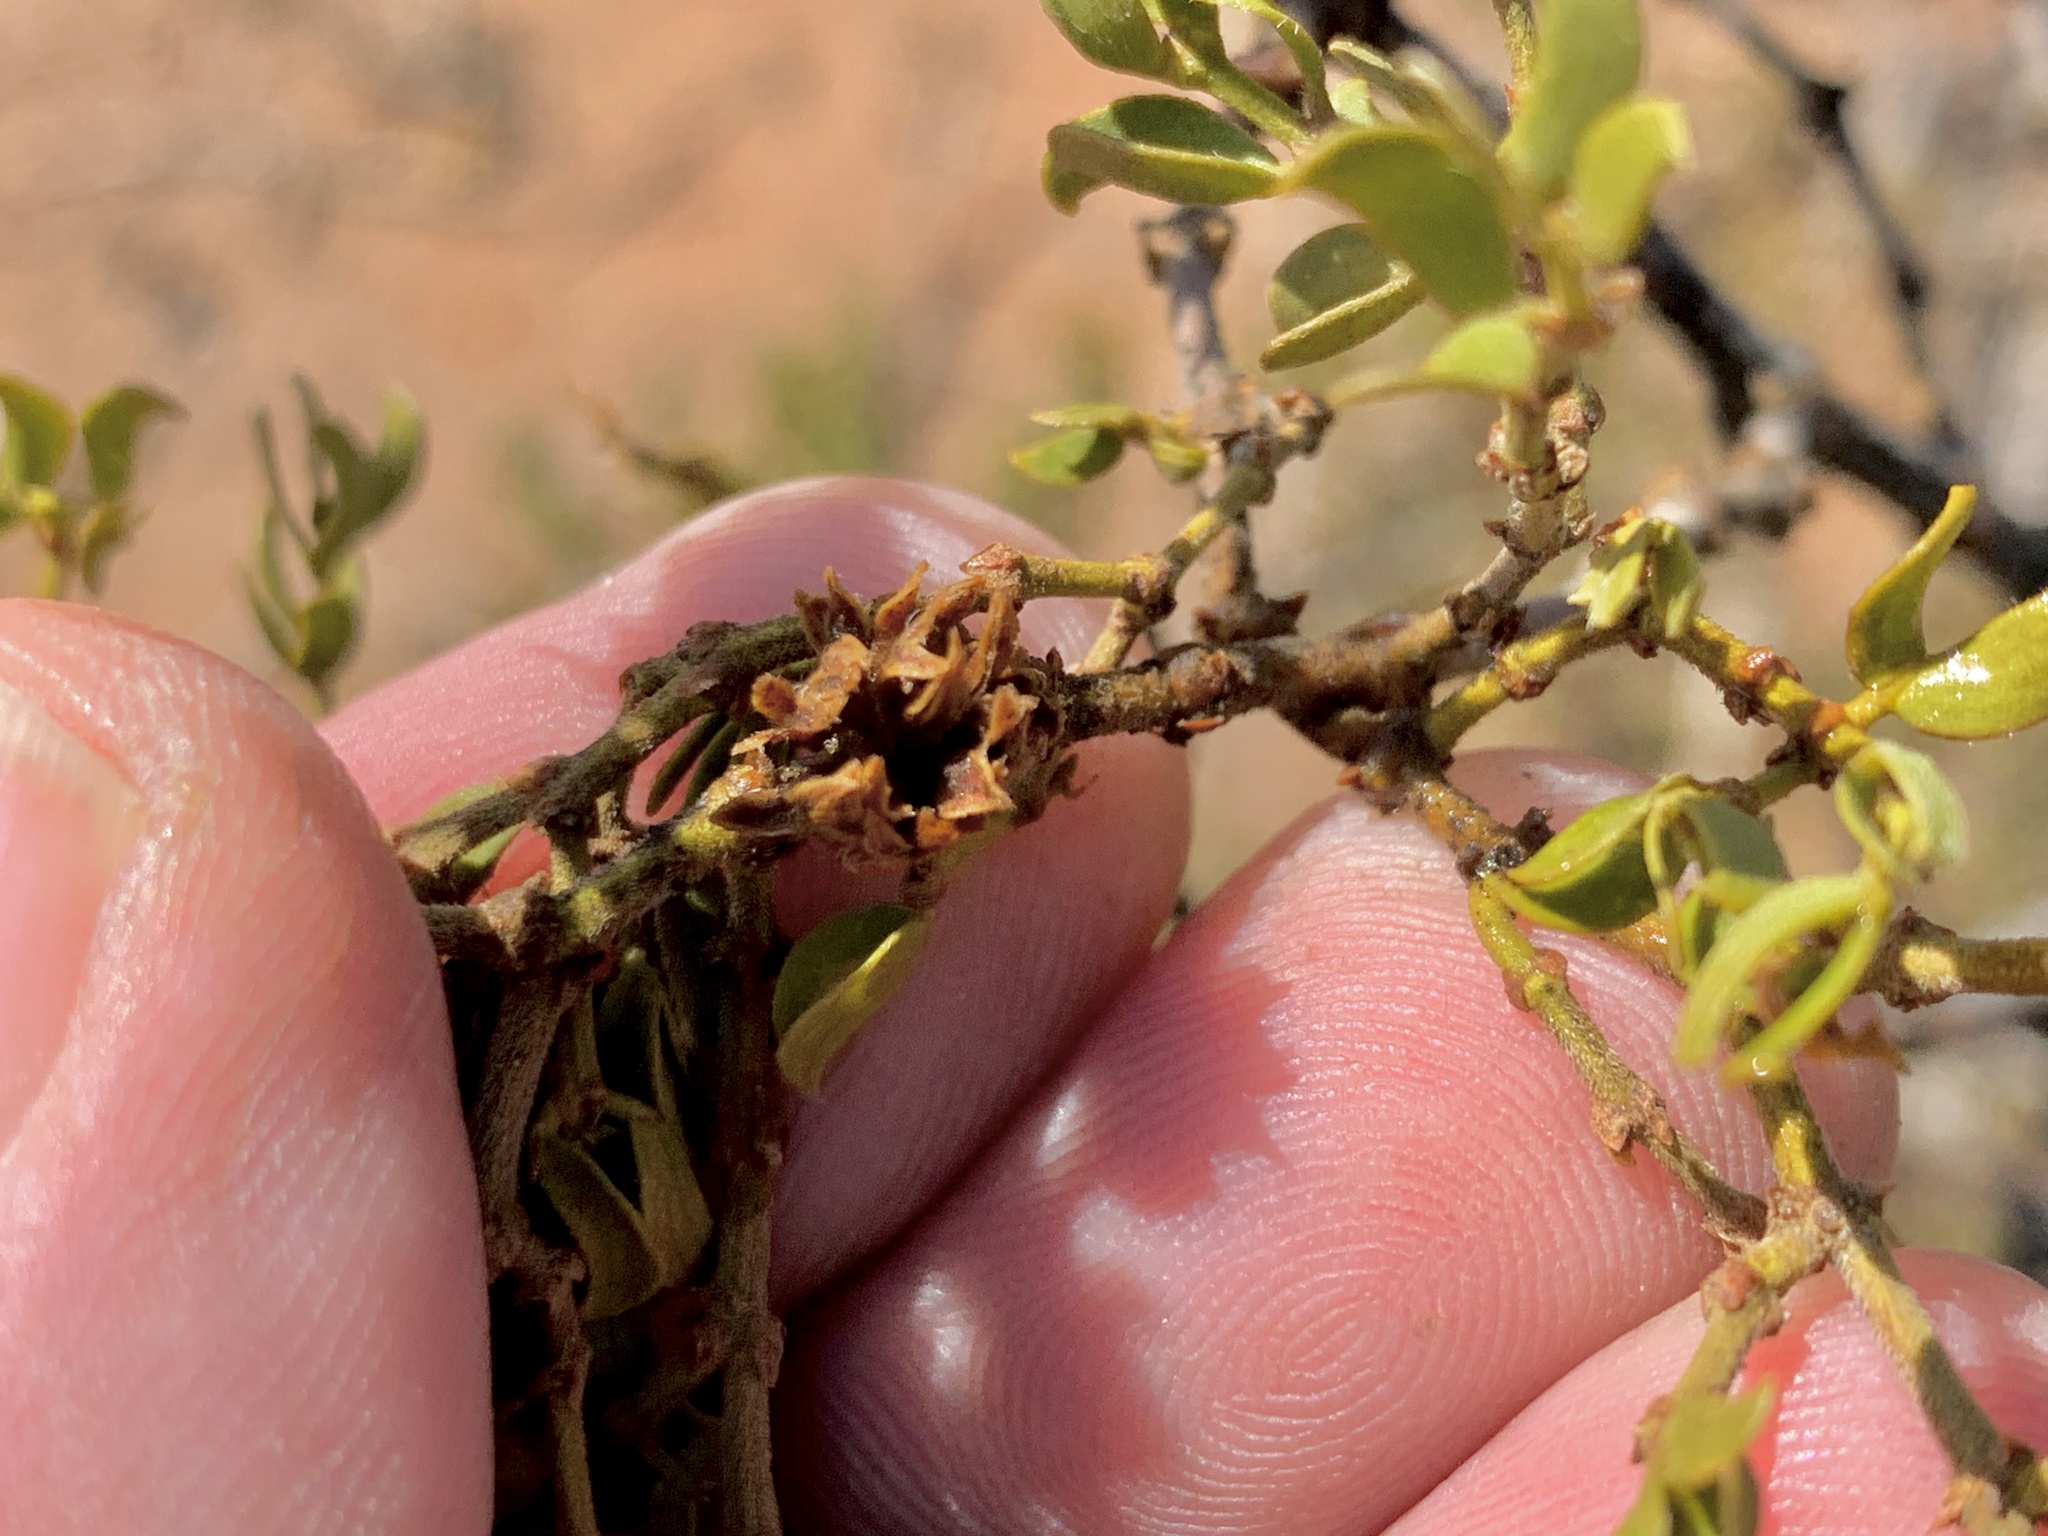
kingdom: Animalia
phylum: Arthropoda
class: Insecta
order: Diptera
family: Cecidomyiidae
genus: Asphondylia
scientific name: Asphondylia auripila
